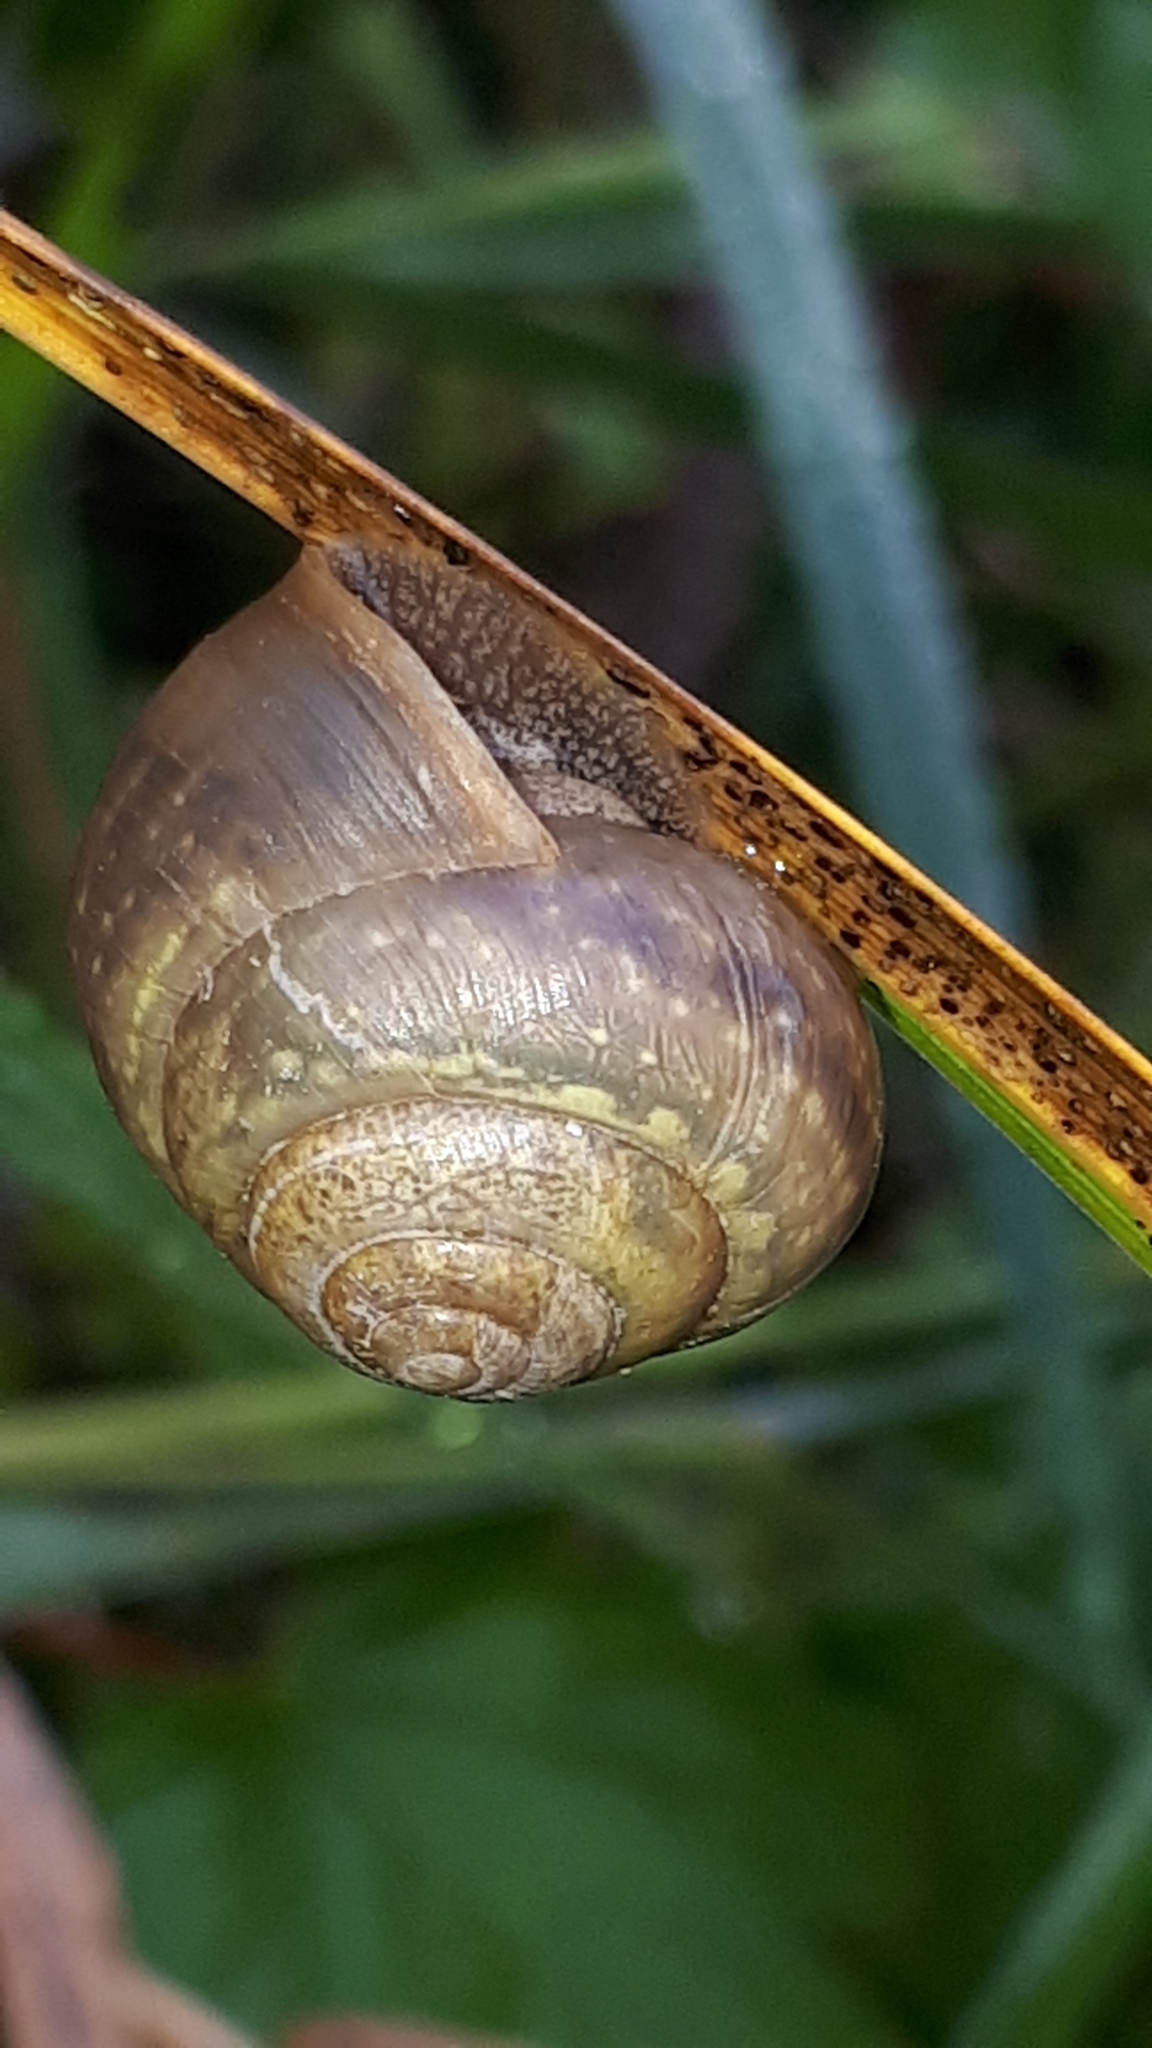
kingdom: Animalia
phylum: Mollusca
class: Gastropoda
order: Stylommatophora
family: Camaenidae
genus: Fruticicola
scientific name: Fruticicola fruticum
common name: Bush snail
